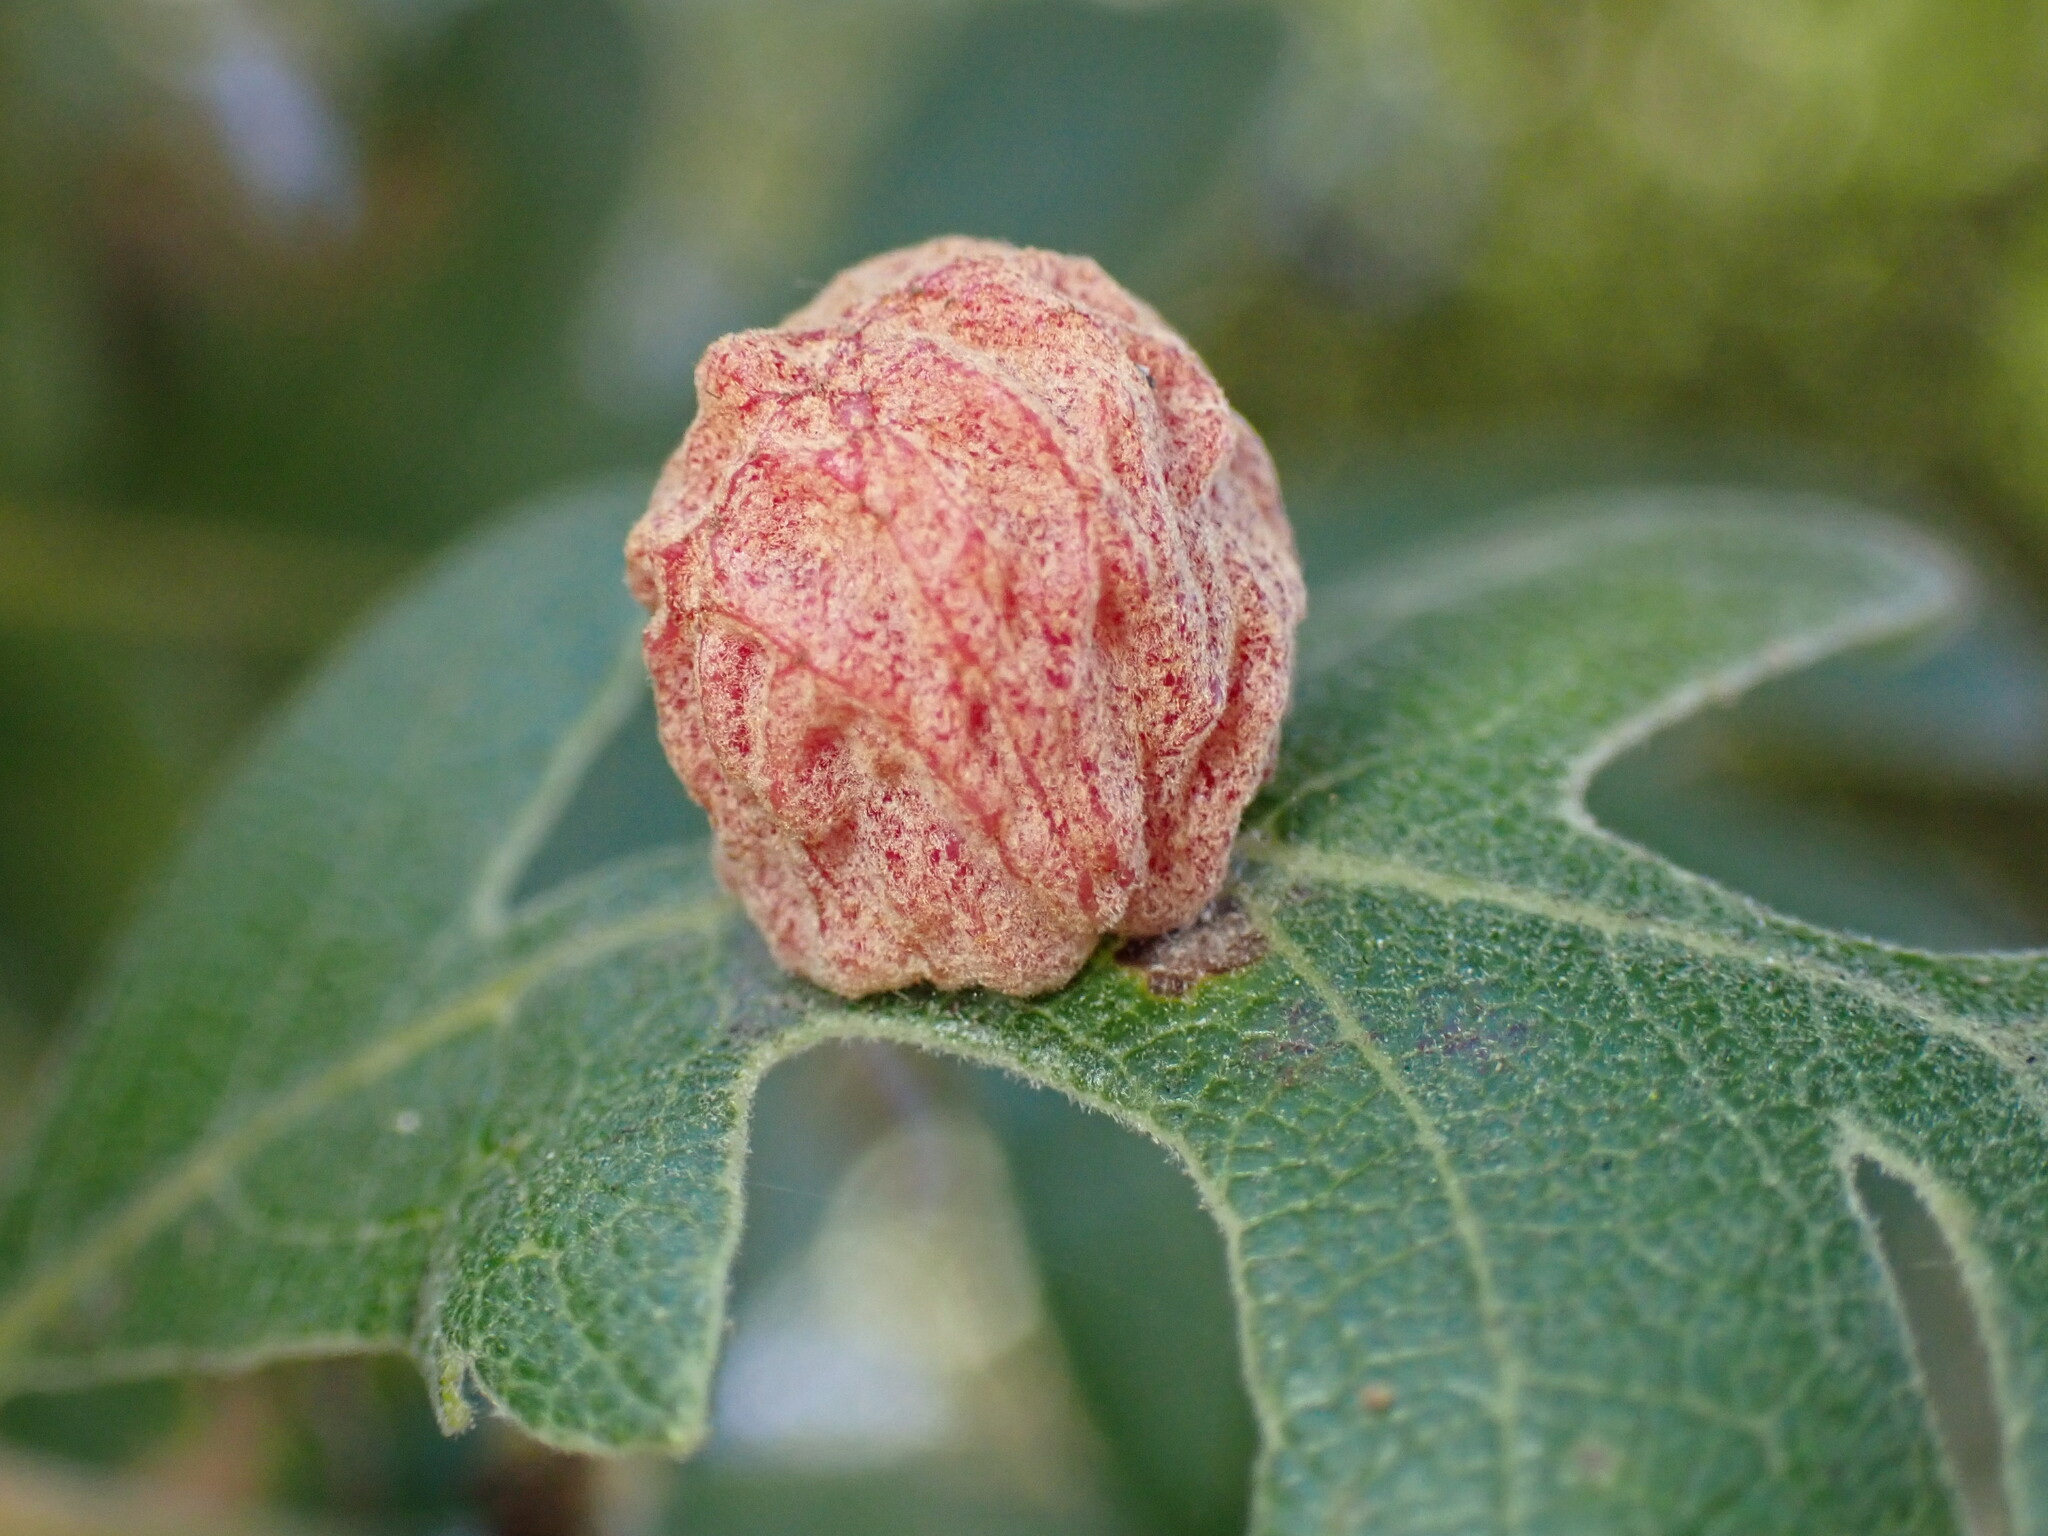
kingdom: Animalia
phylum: Arthropoda
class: Insecta
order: Hymenoptera
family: Cynipidae
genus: Cynips
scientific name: Cynips conspicua
